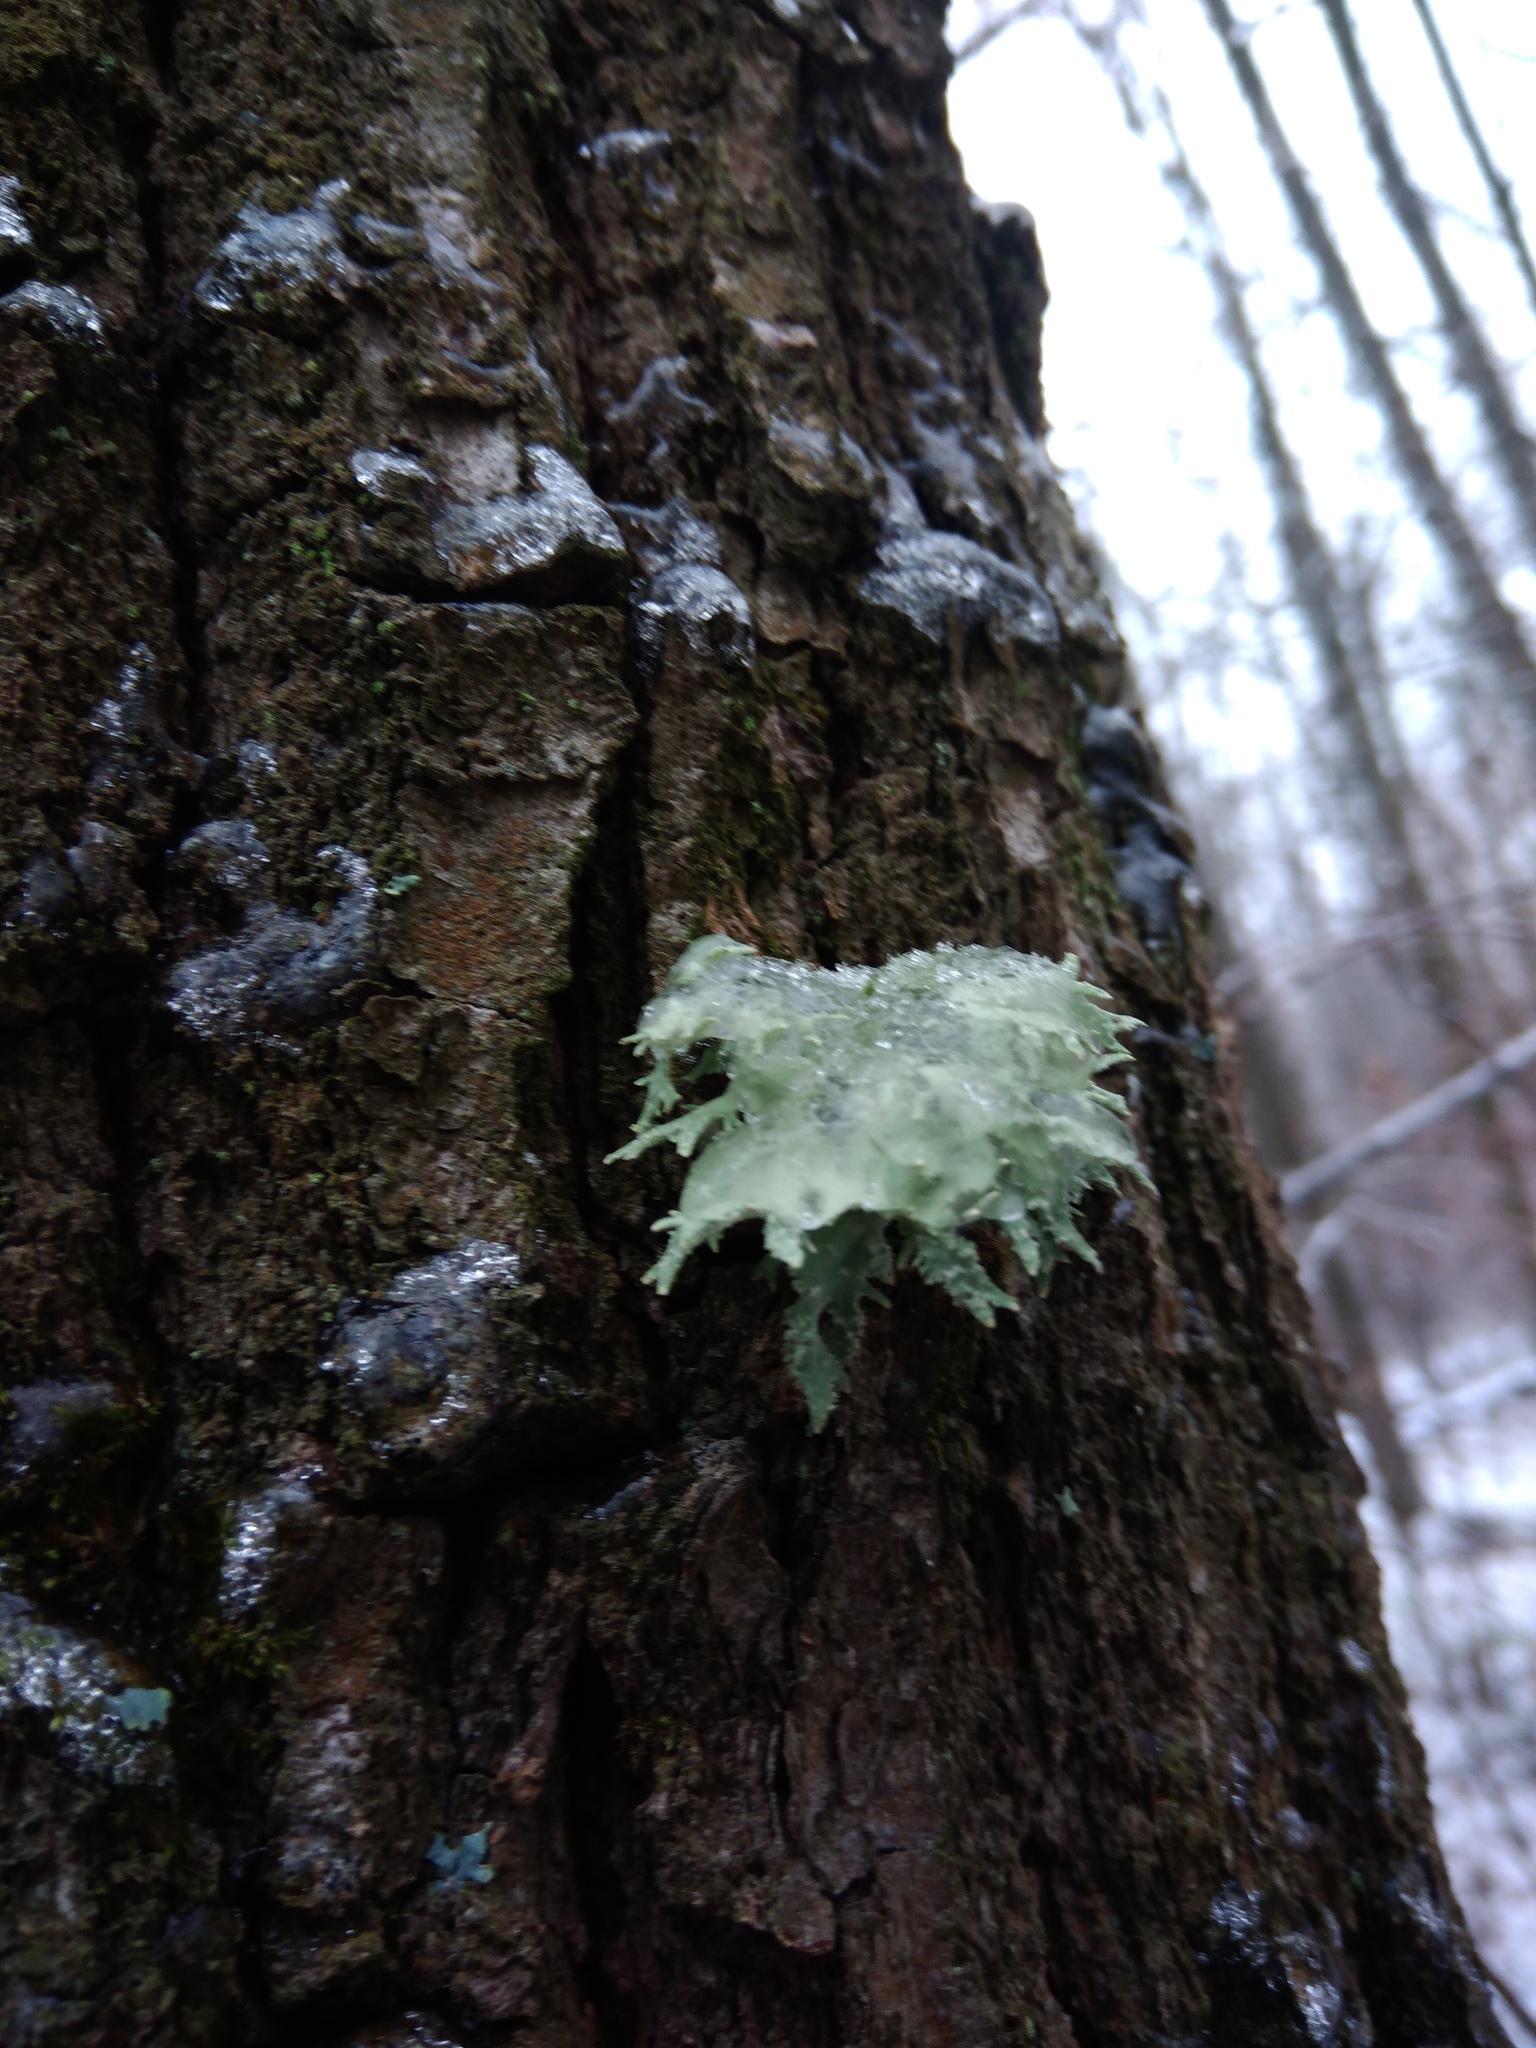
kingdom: Fungi
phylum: Ascomycota
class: Lecanoromycetes
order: Lecanorales
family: Parmeliaceae
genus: Evernia
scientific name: Evernia prunastri
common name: Oak moss
